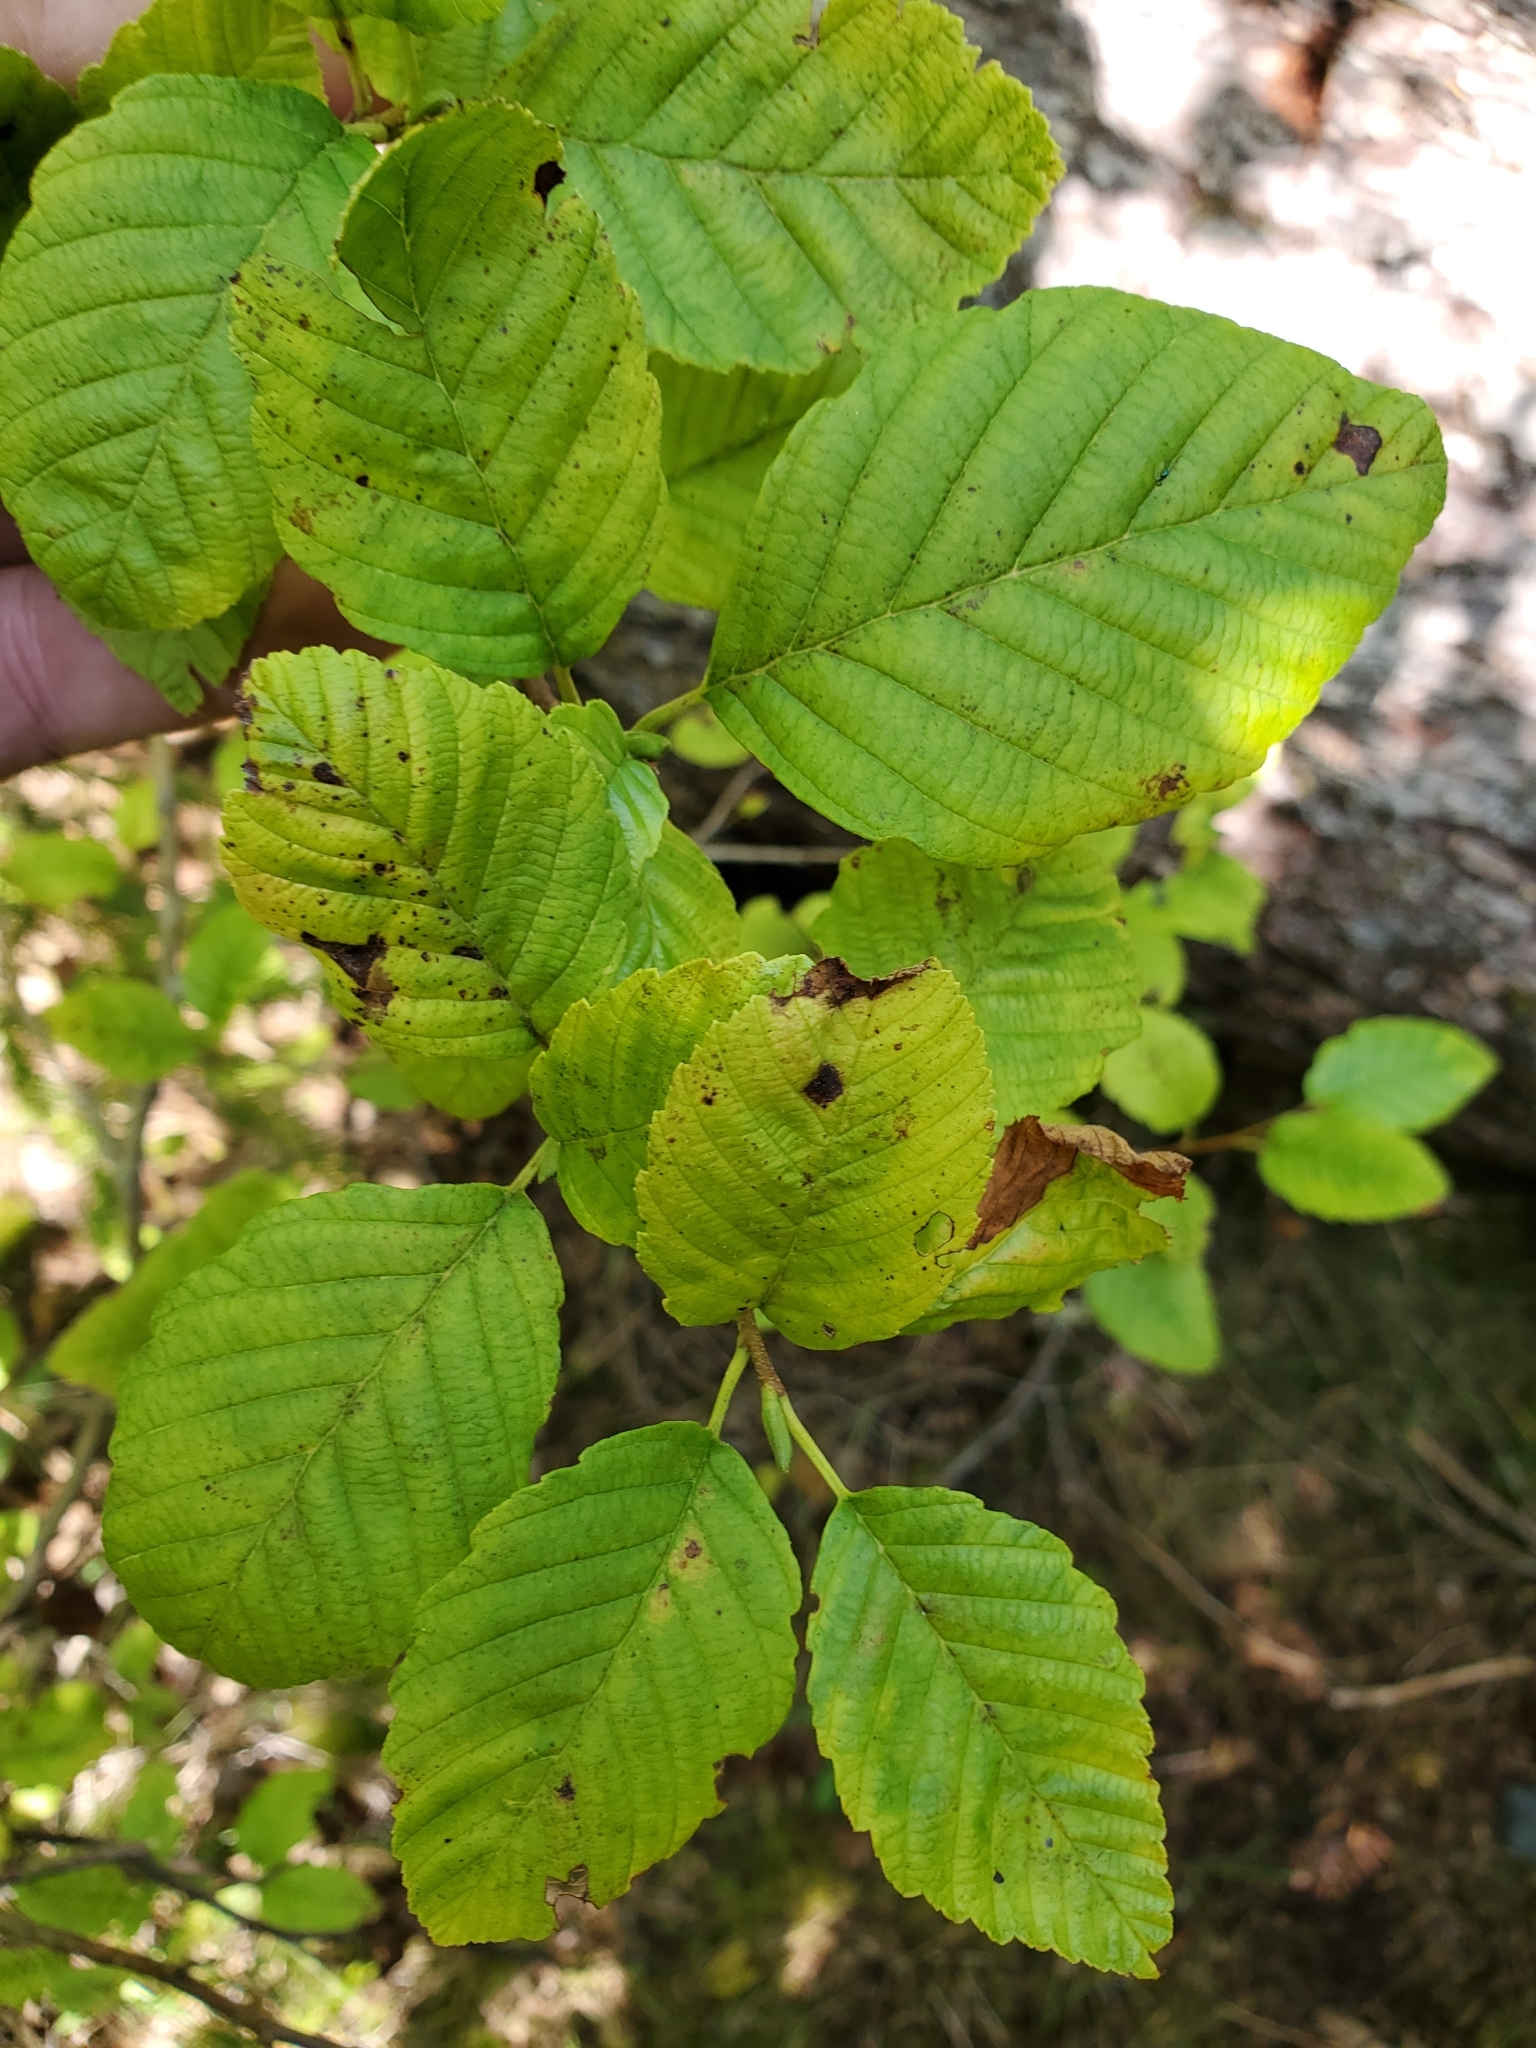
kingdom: Plantae
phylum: Tracheophyta
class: Magnoliopsida
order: Fagales
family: Betulaceae
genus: Alnus
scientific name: Alnus rubra
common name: Red alder
